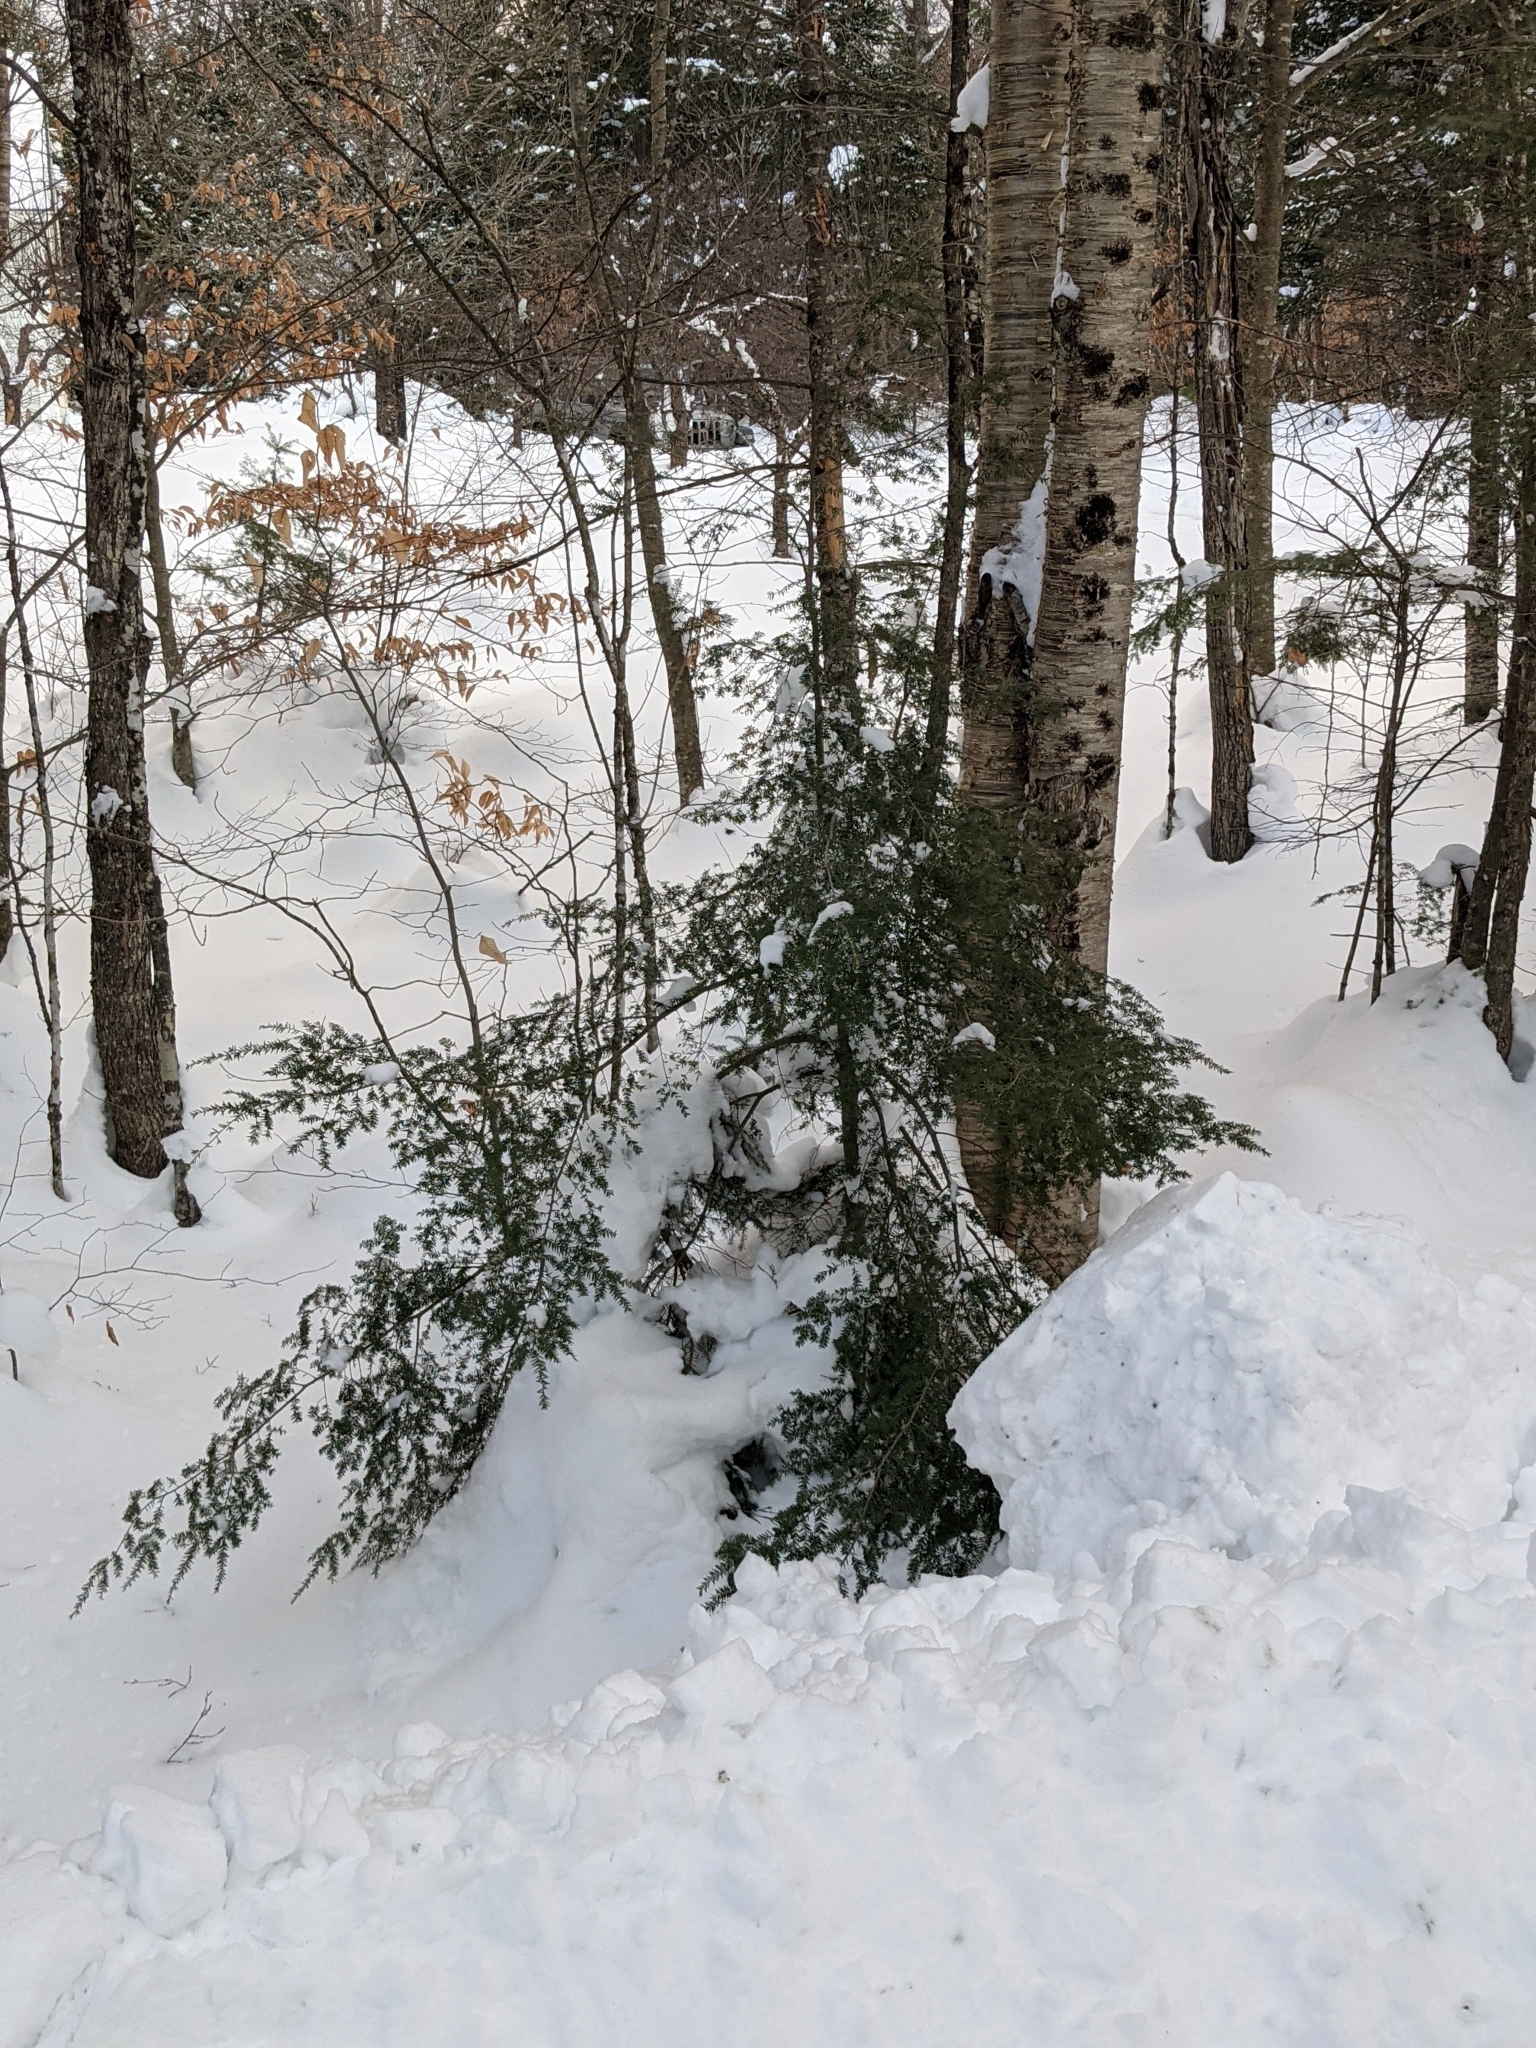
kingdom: Plantae
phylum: Tracheophyta
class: Pinopsida
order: Pinales
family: Pinaceae
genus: Tsuga
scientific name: Tsuga canadensis
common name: Eastern hemlock
